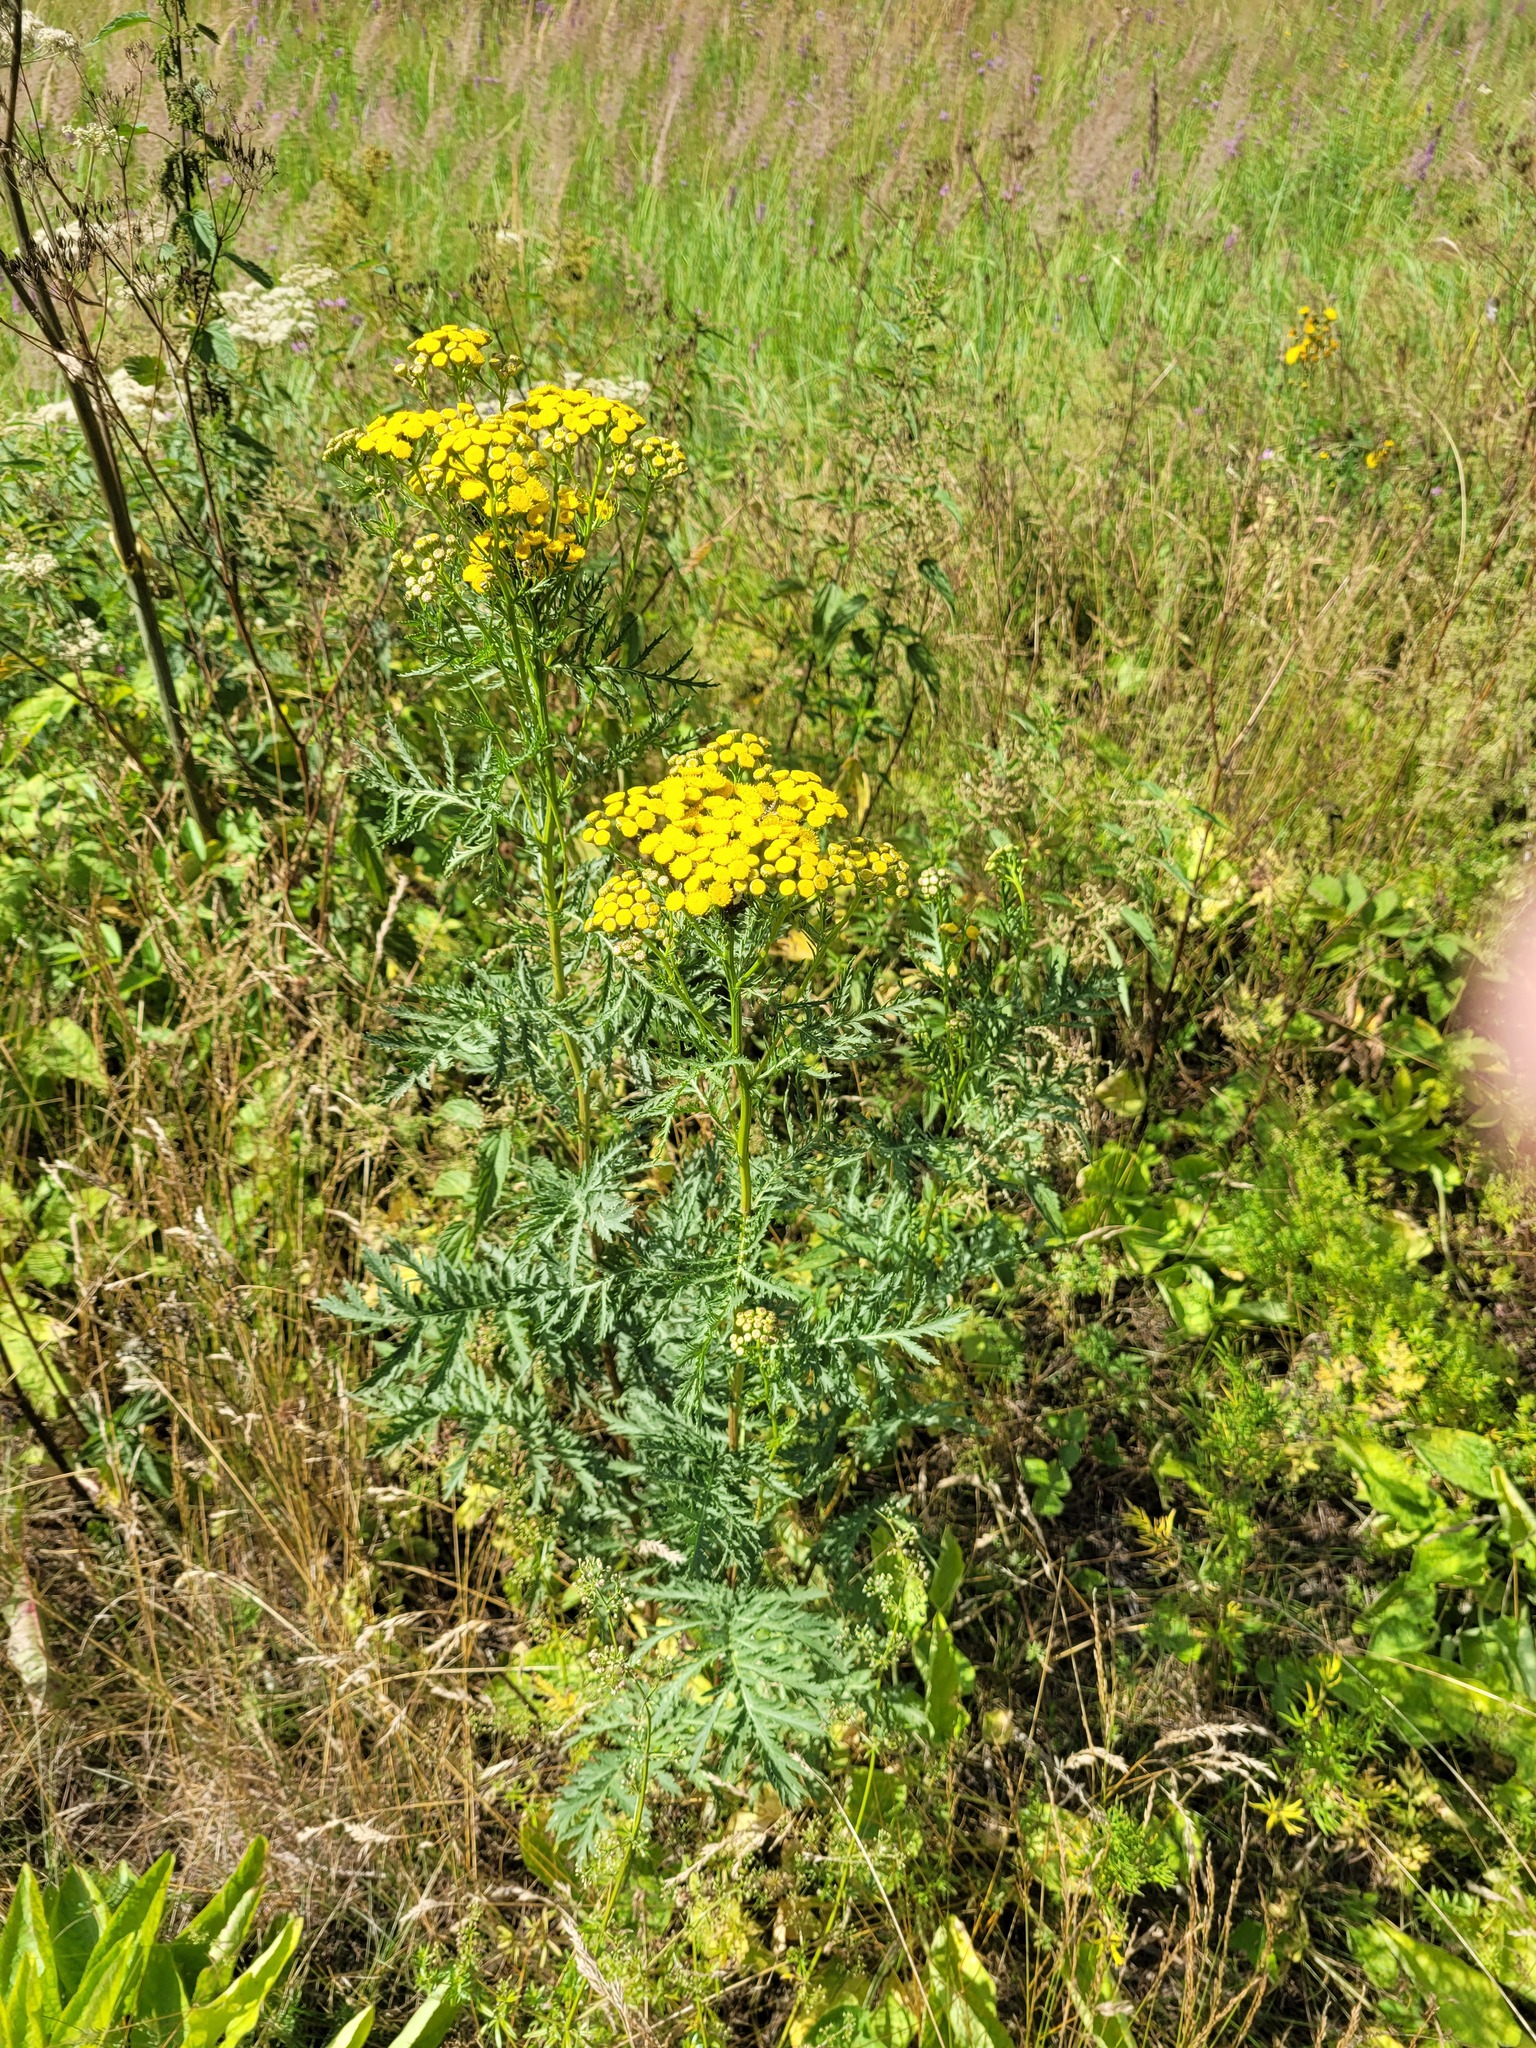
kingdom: Plantae
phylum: Tracheophyta
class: Magnoliopsida
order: Asterales
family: Asteraceae
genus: Tanacetum
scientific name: Tanacetum vulgare
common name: Common tansy
